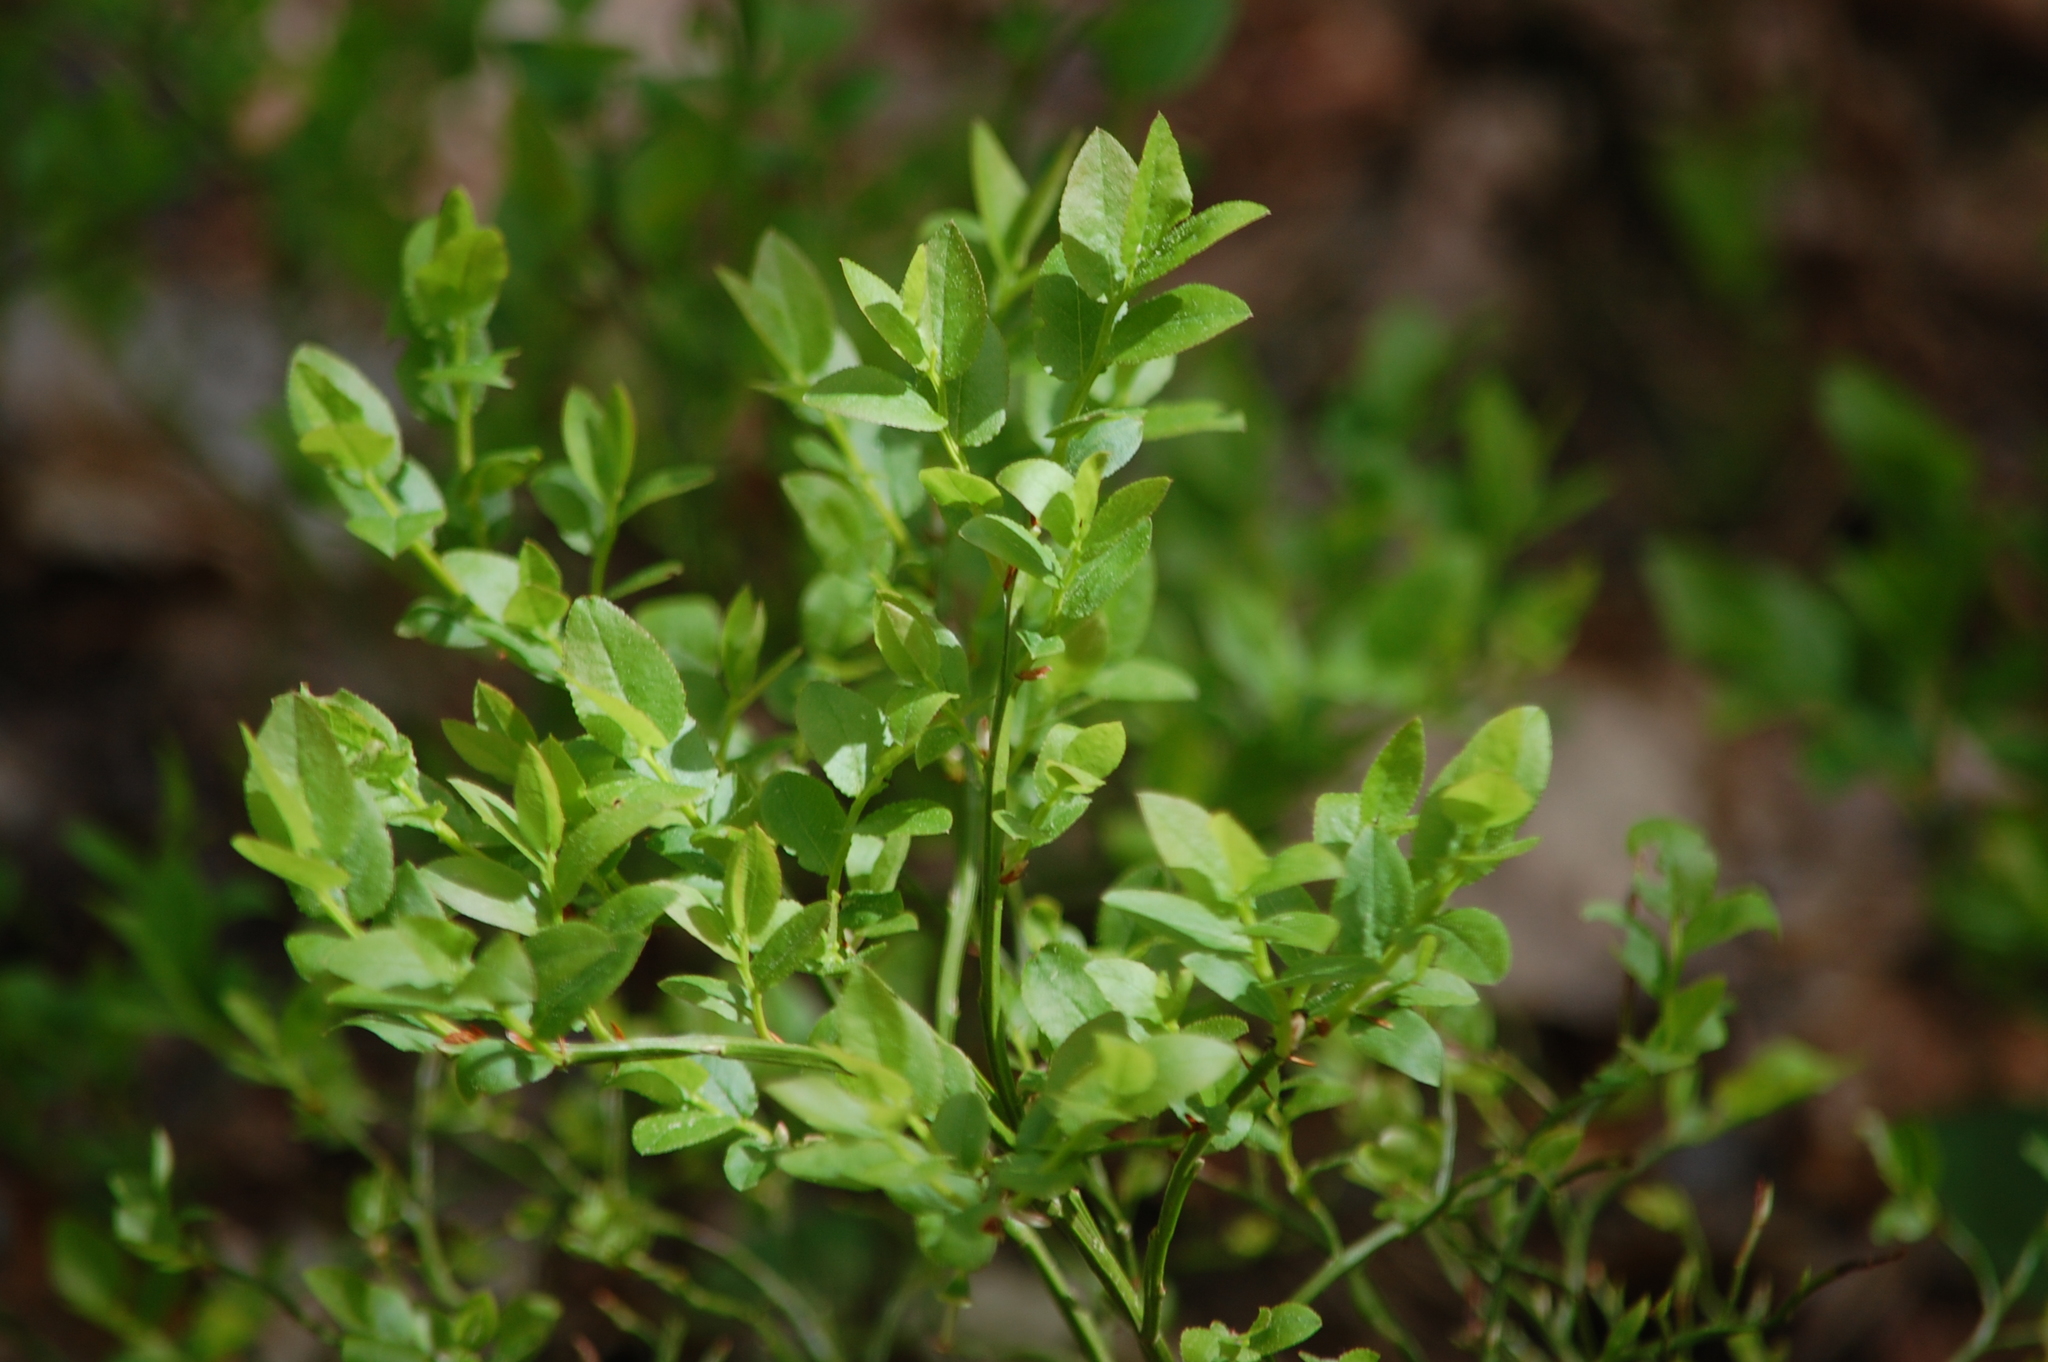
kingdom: Plantae
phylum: Tracheophyta
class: Magnoliopsida
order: Ericales
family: Ericaceae
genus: Vaccinium
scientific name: Vaccinium myrtillus
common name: Bilberry
